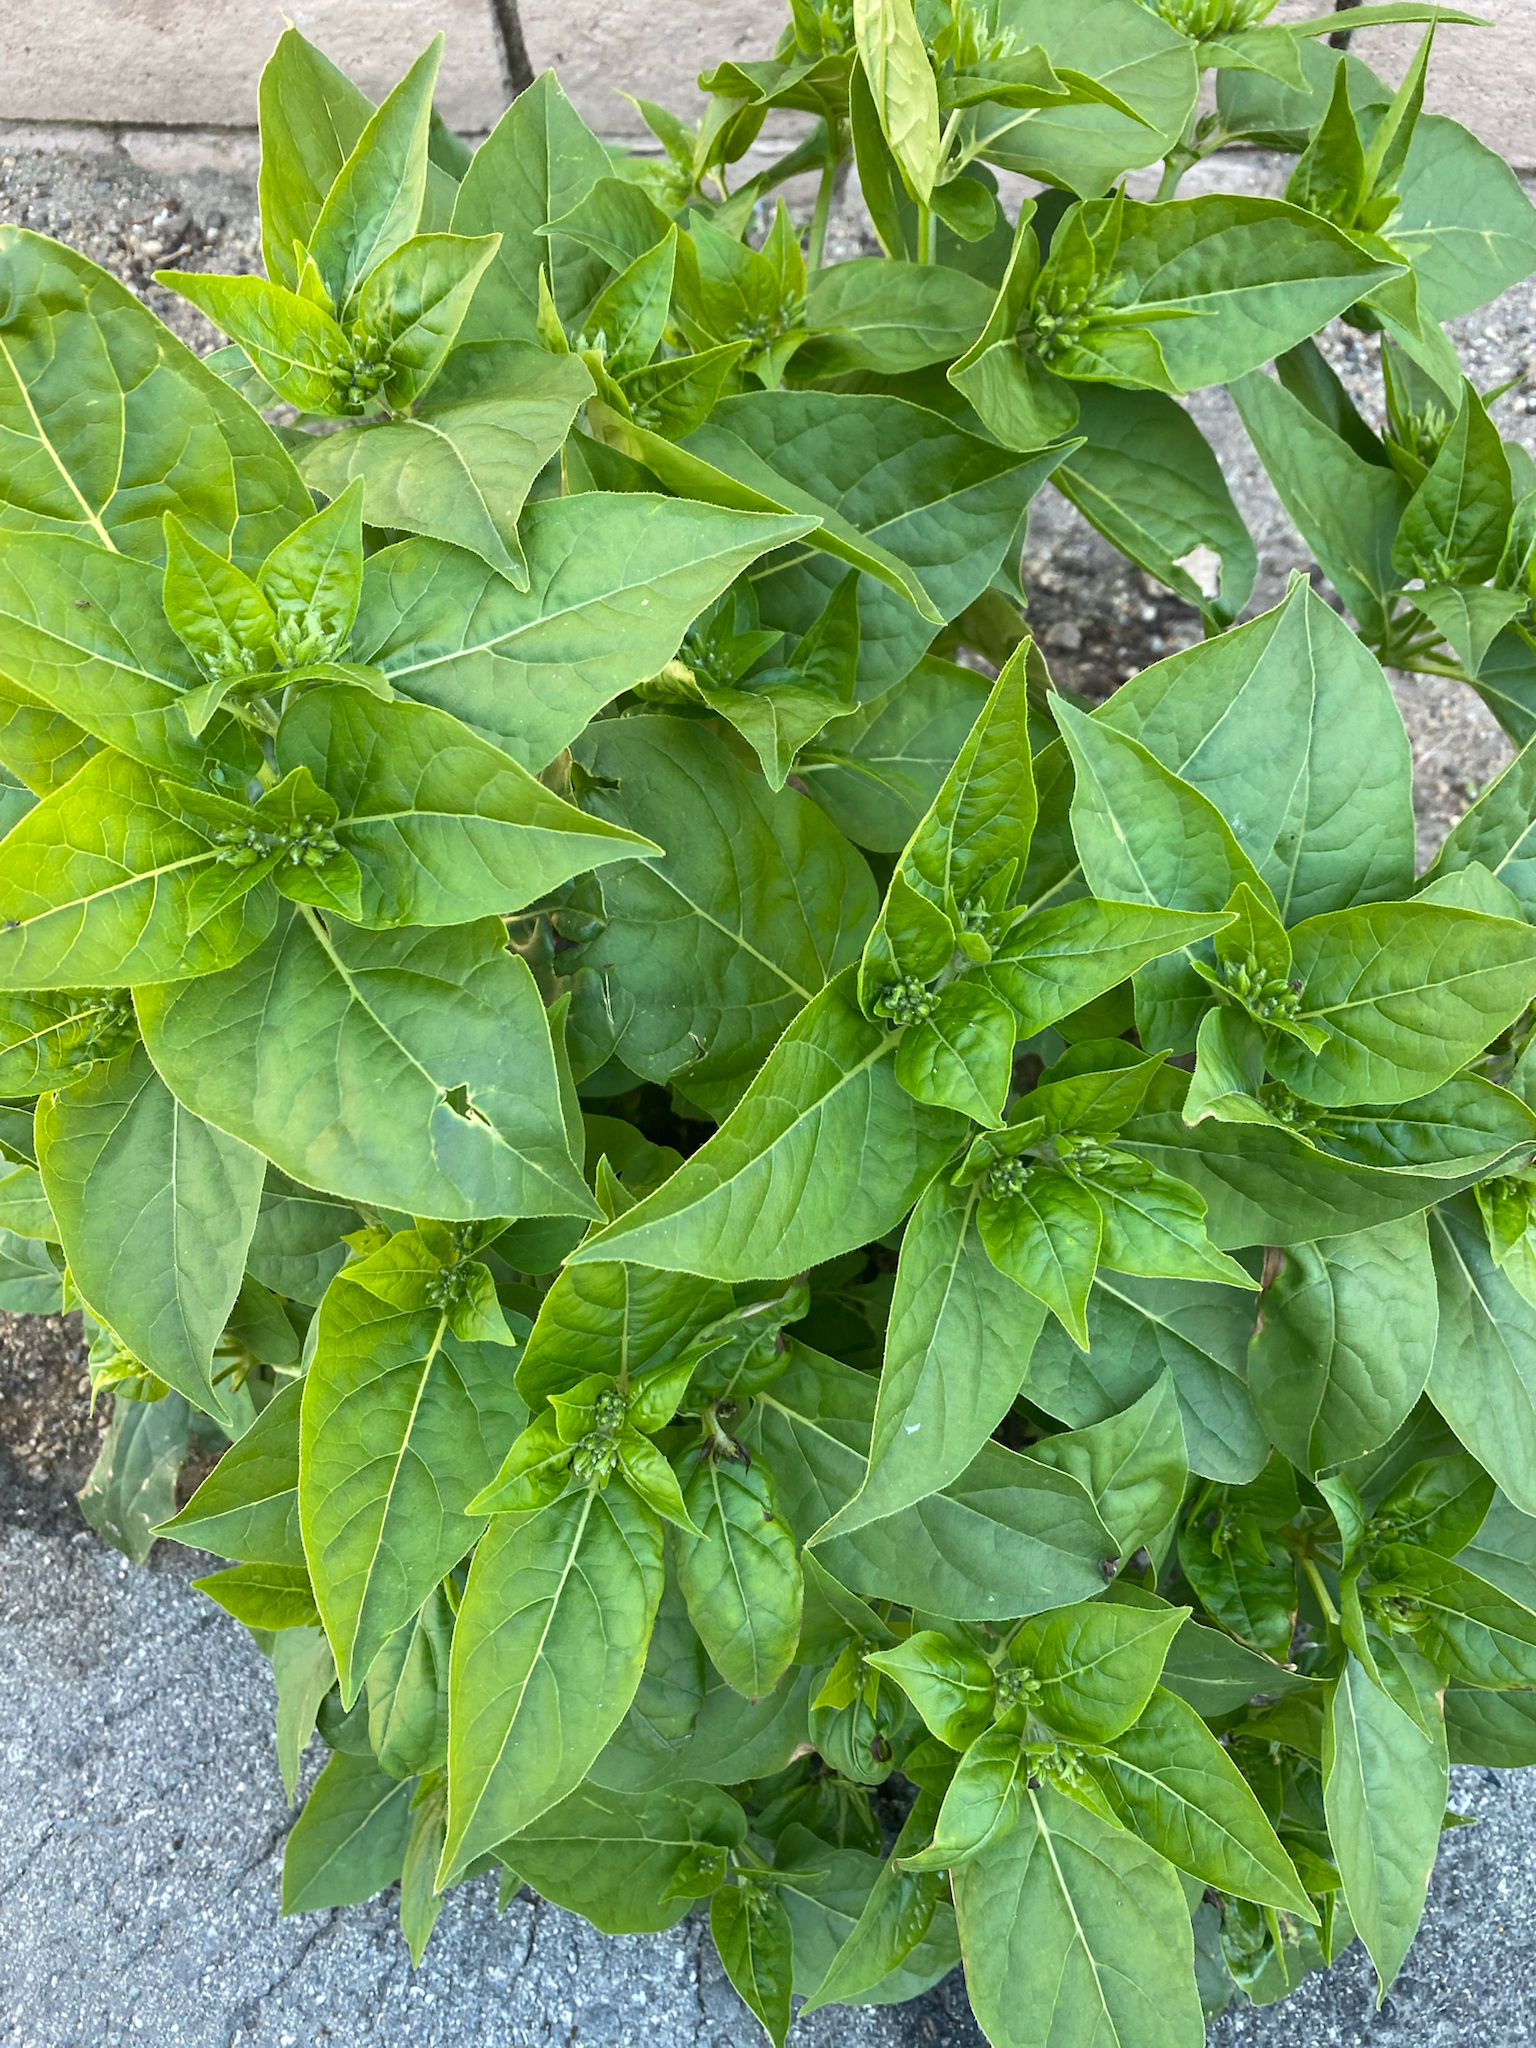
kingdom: Plantae
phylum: Tracheophyta
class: Magnoliopsida
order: Caryophyllales
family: Nyctaginaceae
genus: Mirabilis
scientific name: Mirabilis jalapa
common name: Marvel-of-peru
